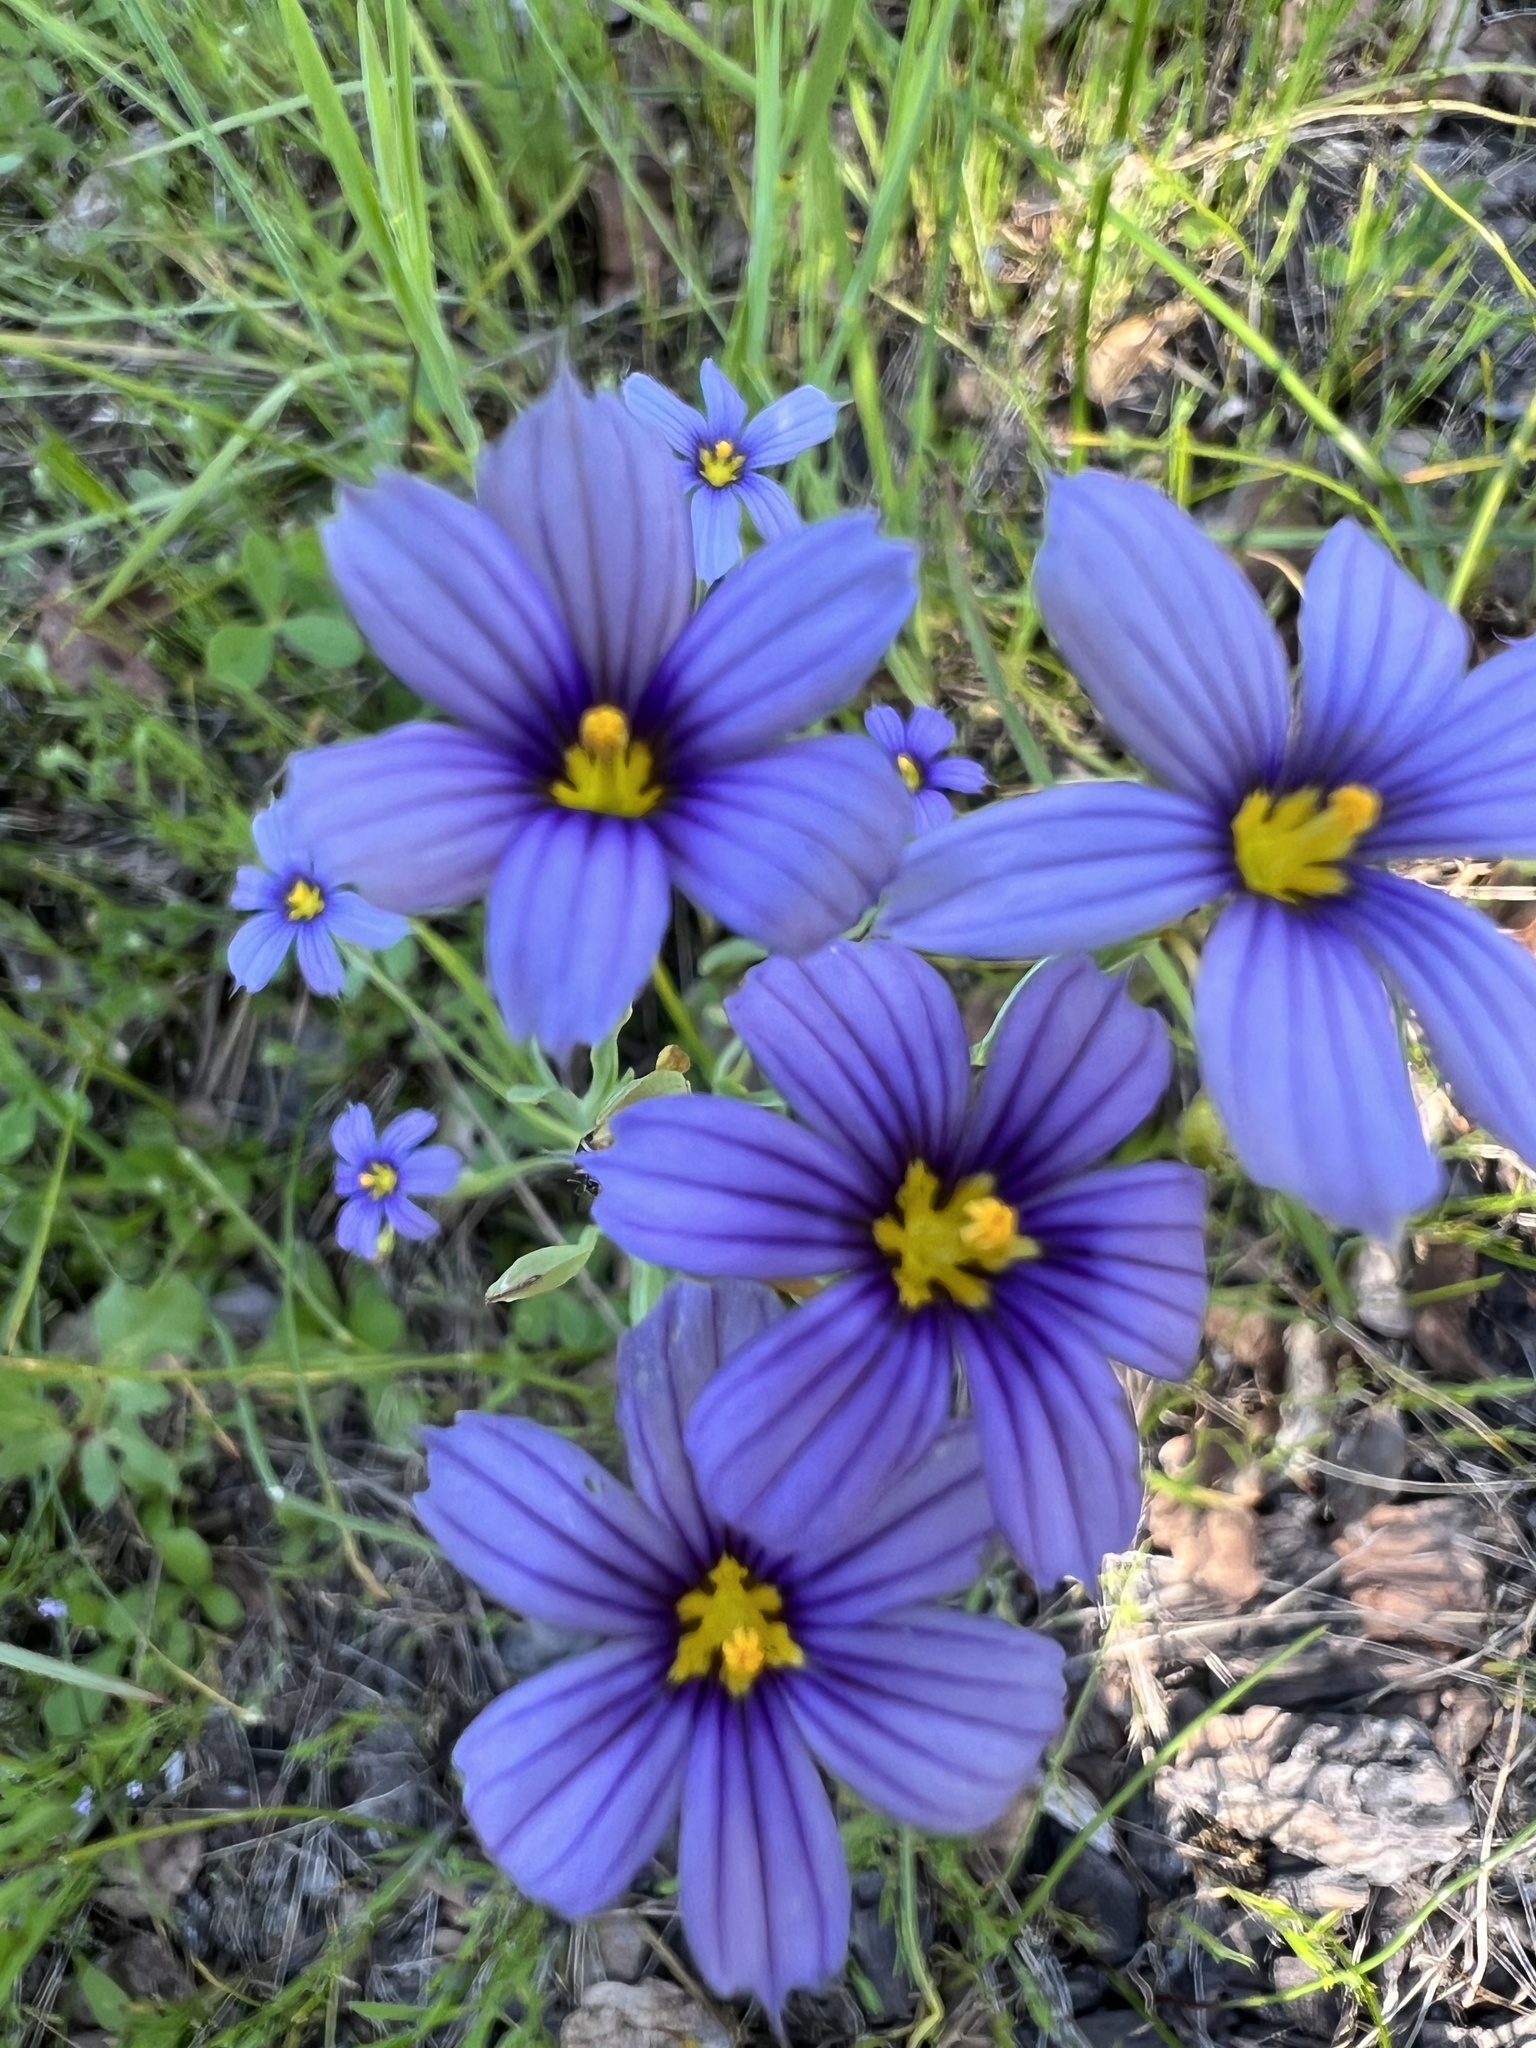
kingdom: Plantae
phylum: Tracheophyta
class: Liliopsida
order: Asparagales
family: Iridaceae
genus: Sisyrinchium
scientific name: Sisyrinchium bellum
